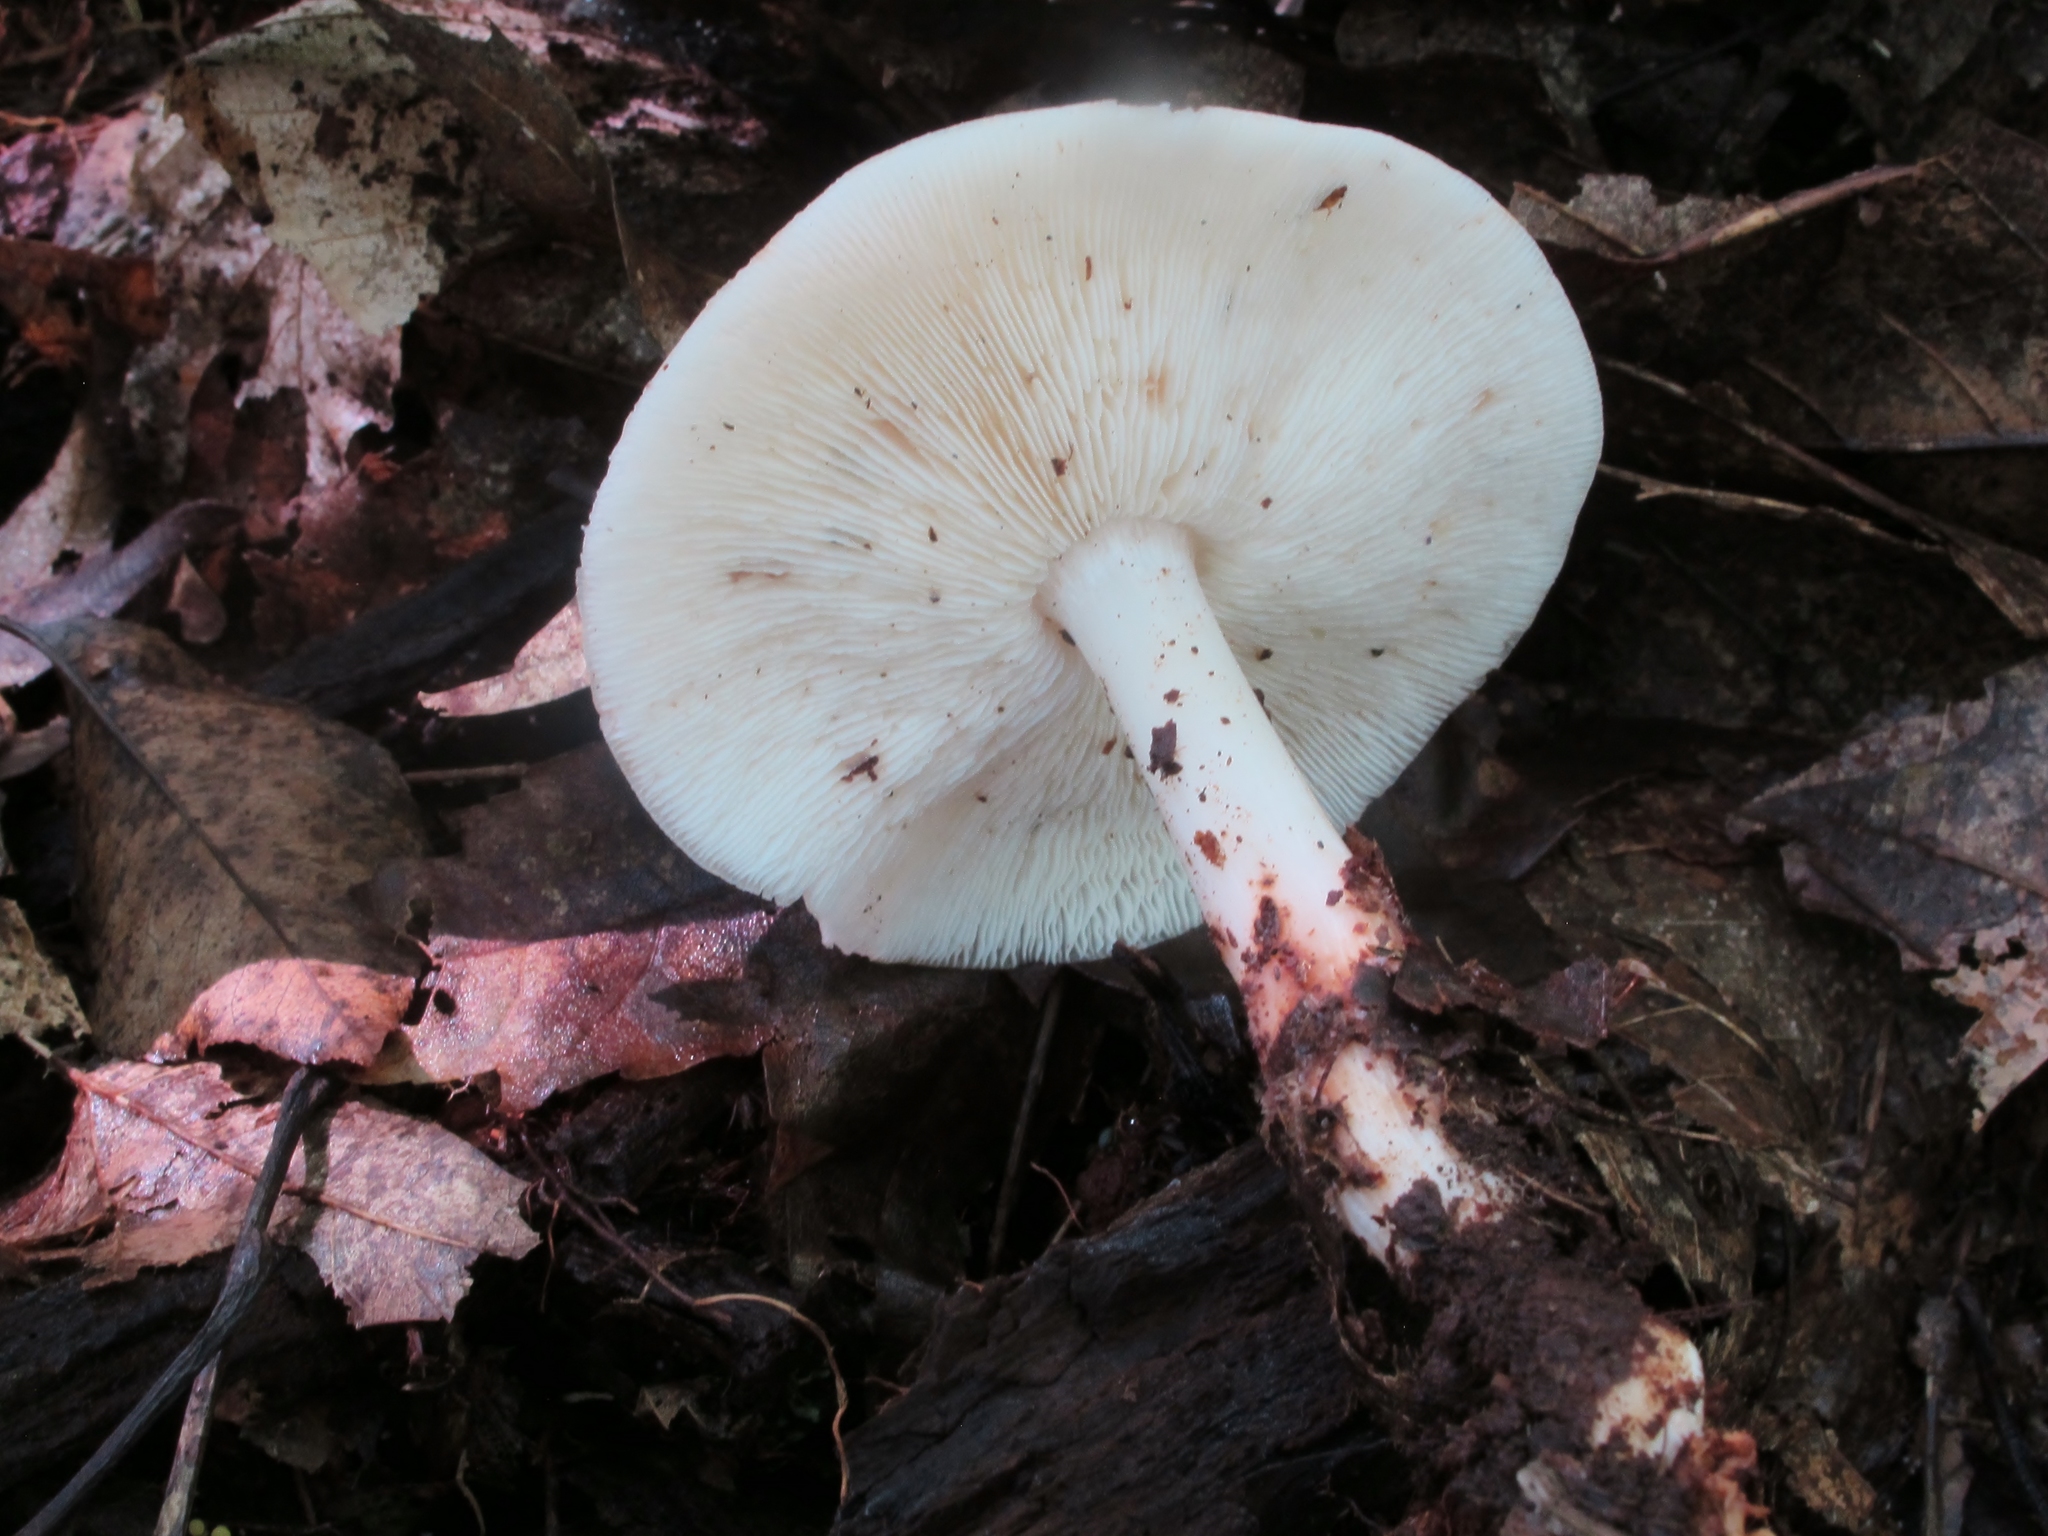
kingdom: Fungi
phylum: Basidiomycota
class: Agaricomycetes
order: Agaricales
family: Omphalotaceae
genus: Rhodocollybia
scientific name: Rhodocollybia maculata
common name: Spotted tough-shank
